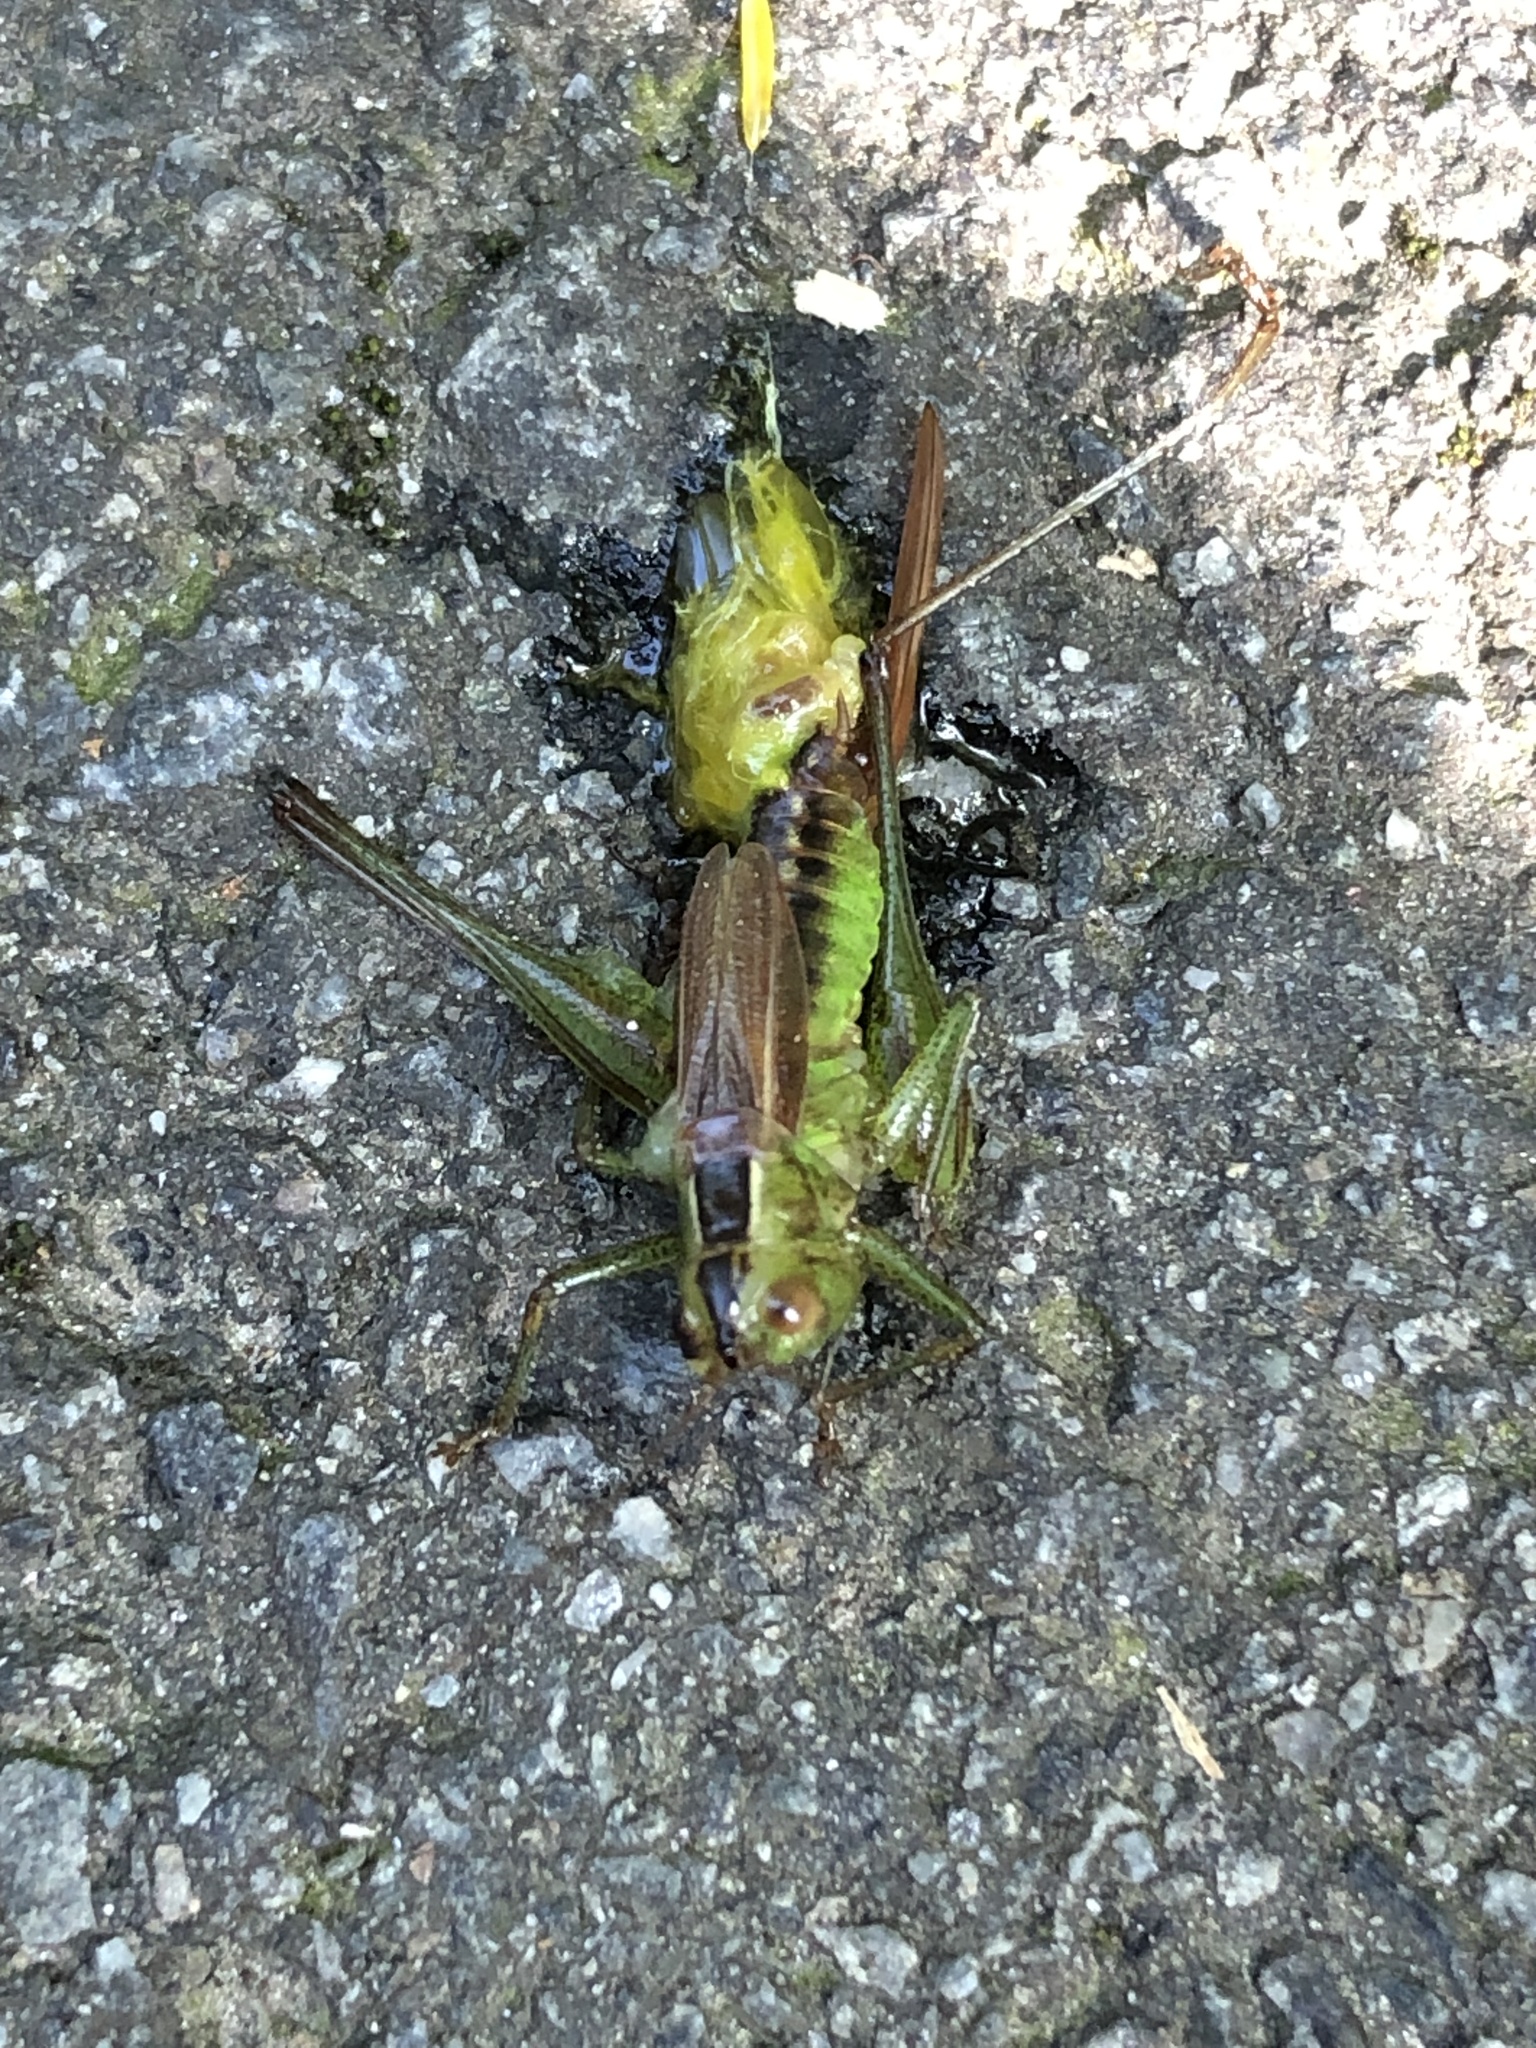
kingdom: Animalia
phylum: Arthropoda
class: Insecta
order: Orthoptera
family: Tettigoniidae
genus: Conocephalus
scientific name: Conocephalus brevipennis
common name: Short-winged meadow katydid
